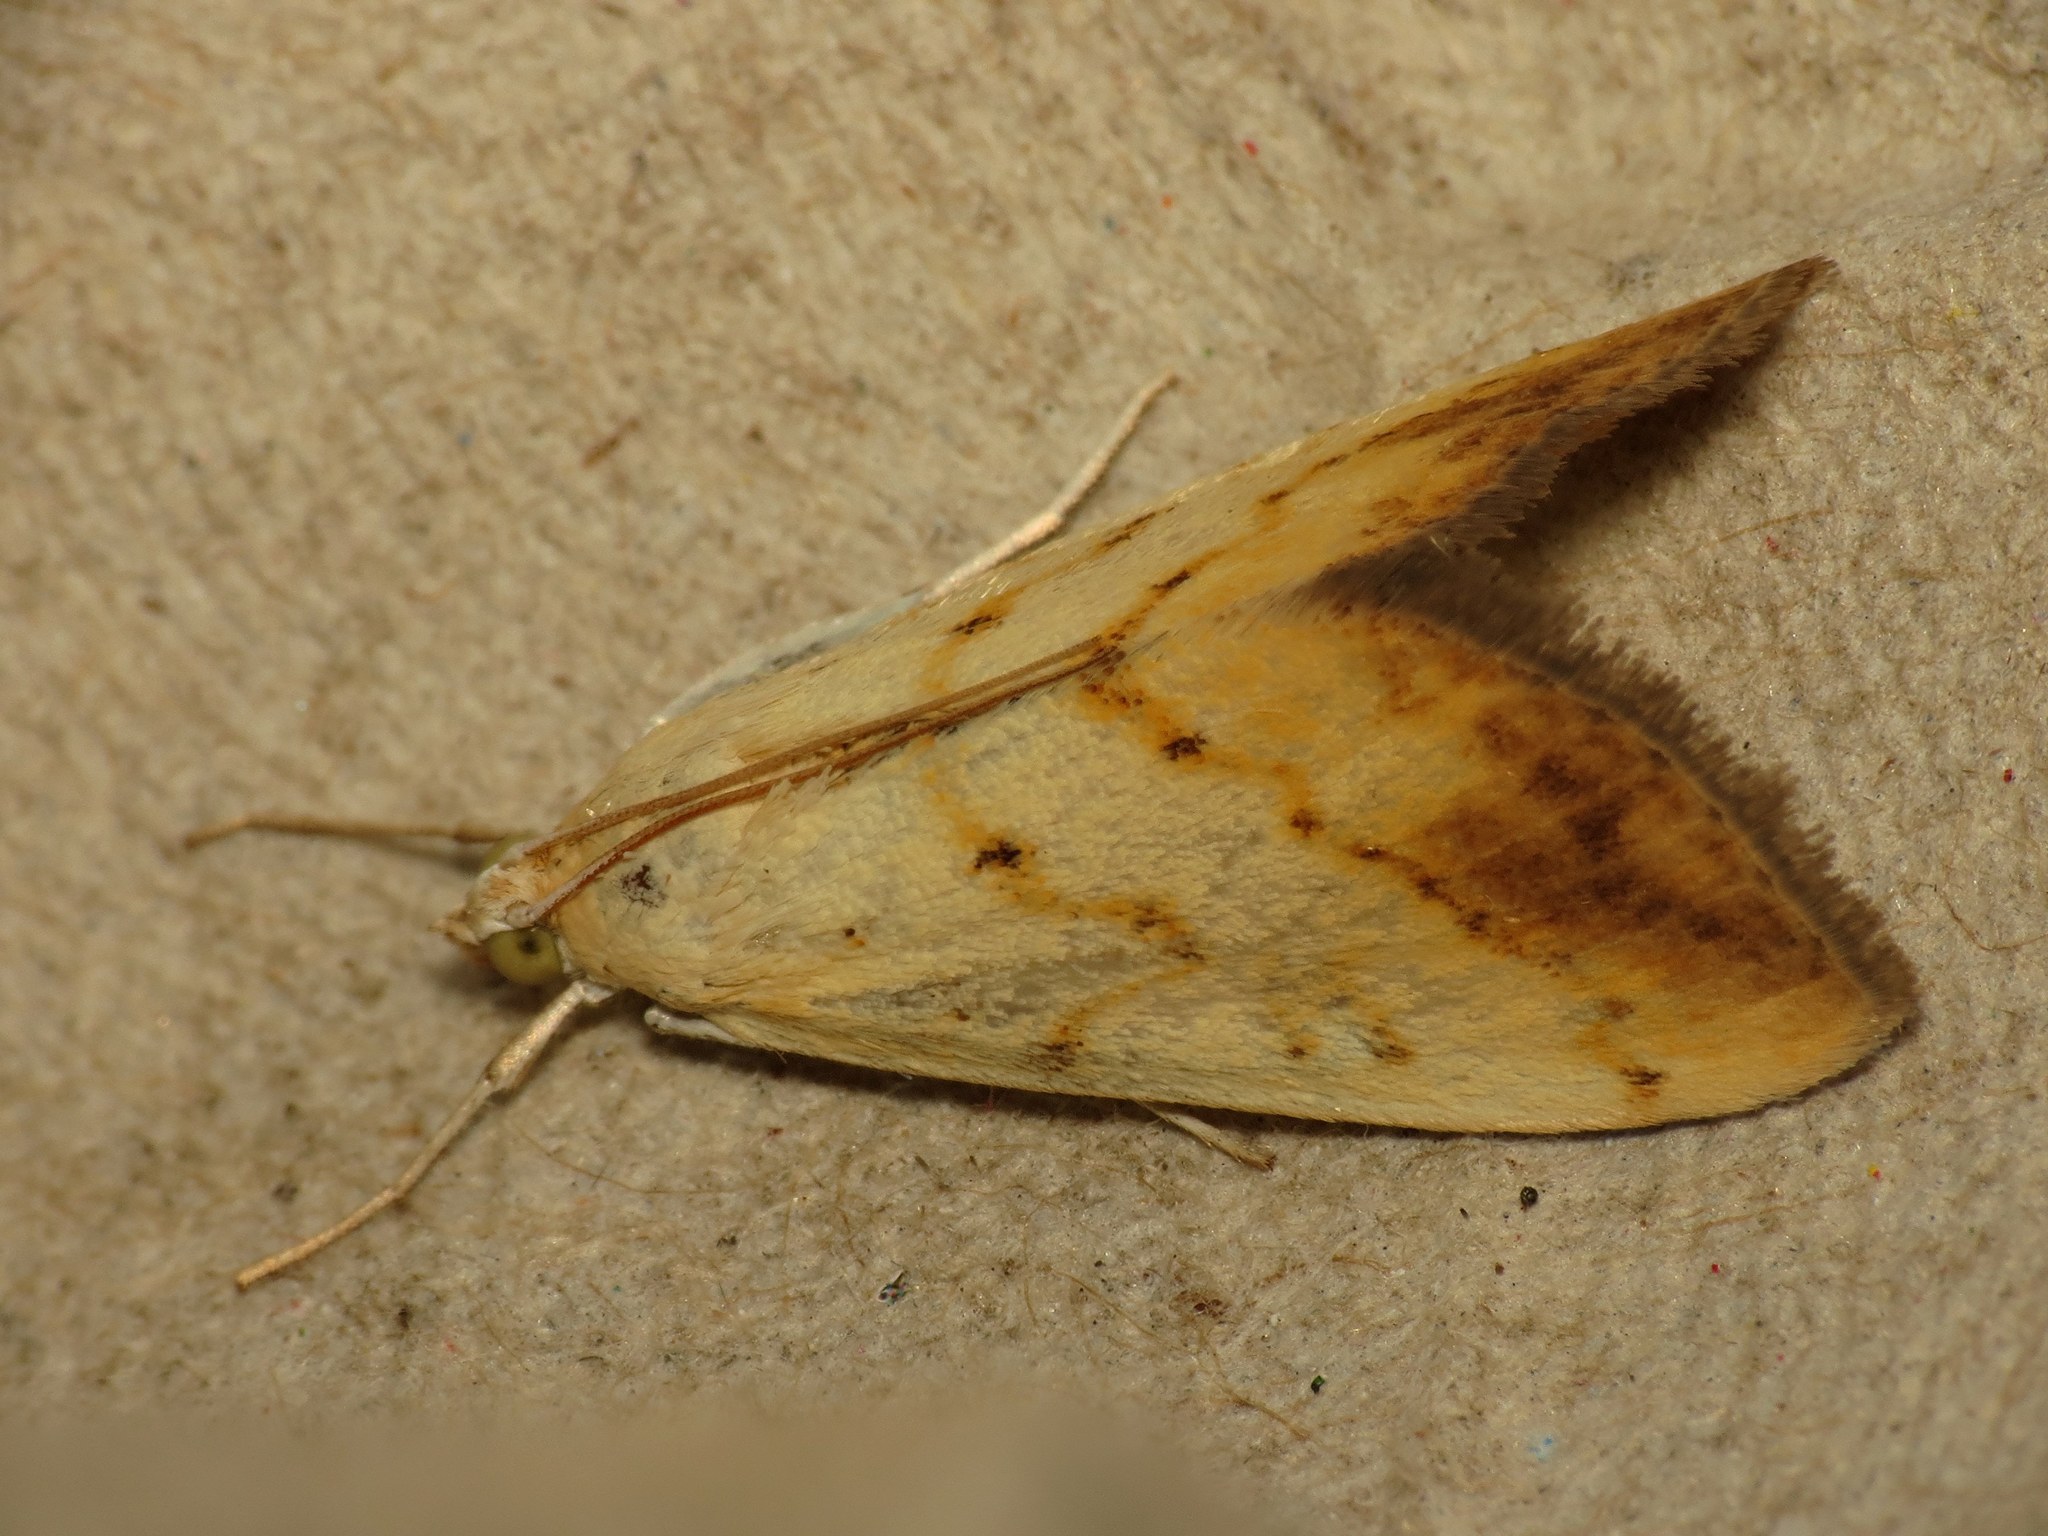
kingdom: Animalia
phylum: Arthropoda
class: Insecta
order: Lepidoptera
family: Crambidae
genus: Evergestis
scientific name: Evergestis extimalis
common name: Marbled yellow pearl
